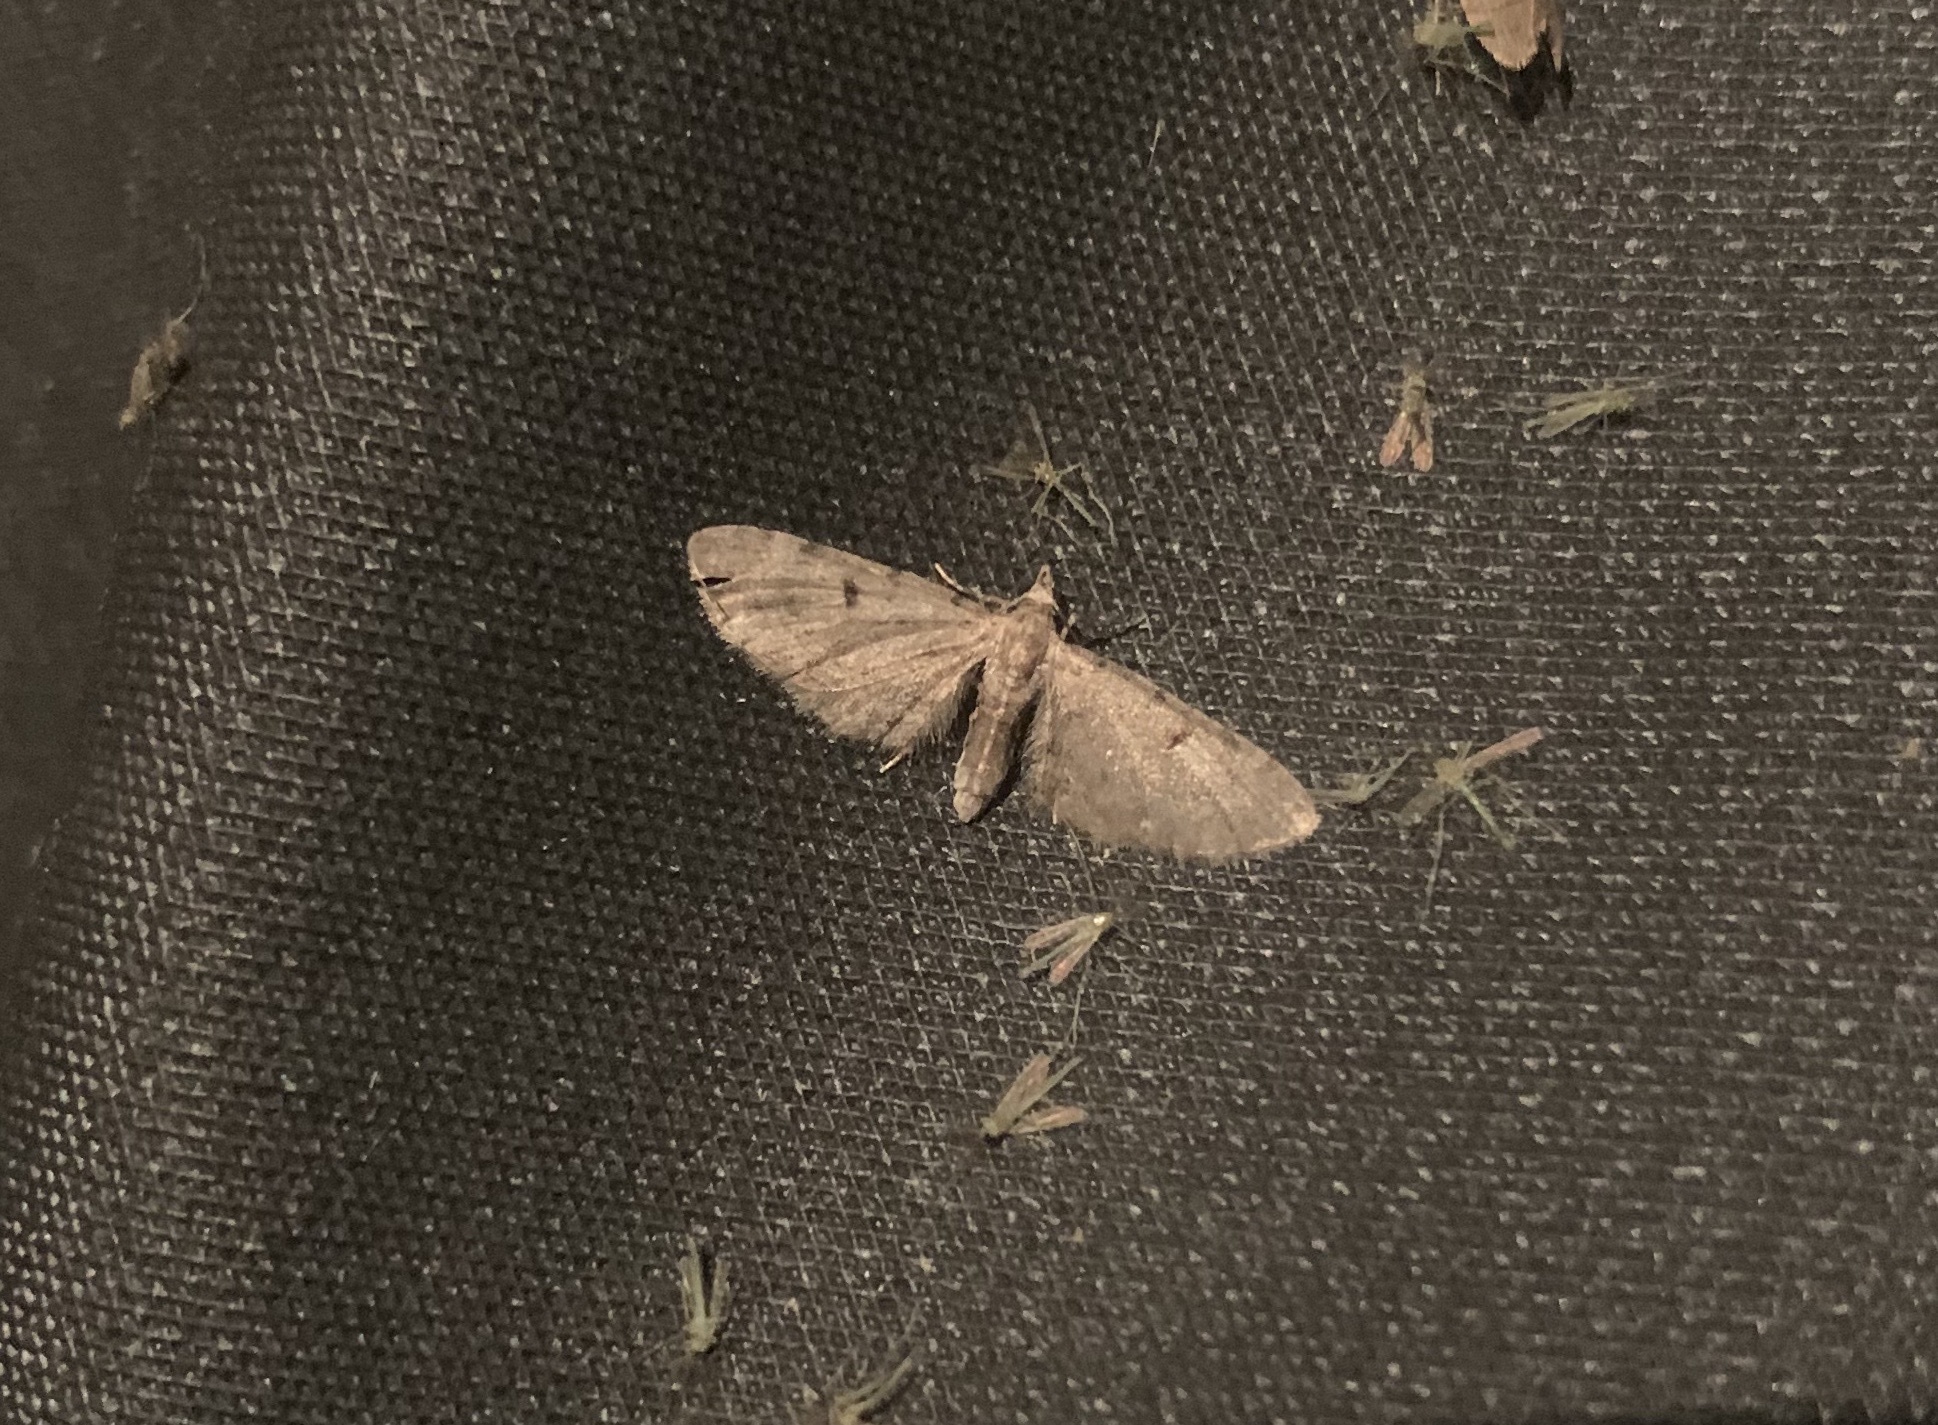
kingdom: Animalia
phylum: Arthropoda
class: Insecta
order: Lepidoptera
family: Geometridae
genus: Eupithecia
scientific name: Eupithecia miserulata
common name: Common eupithecia
